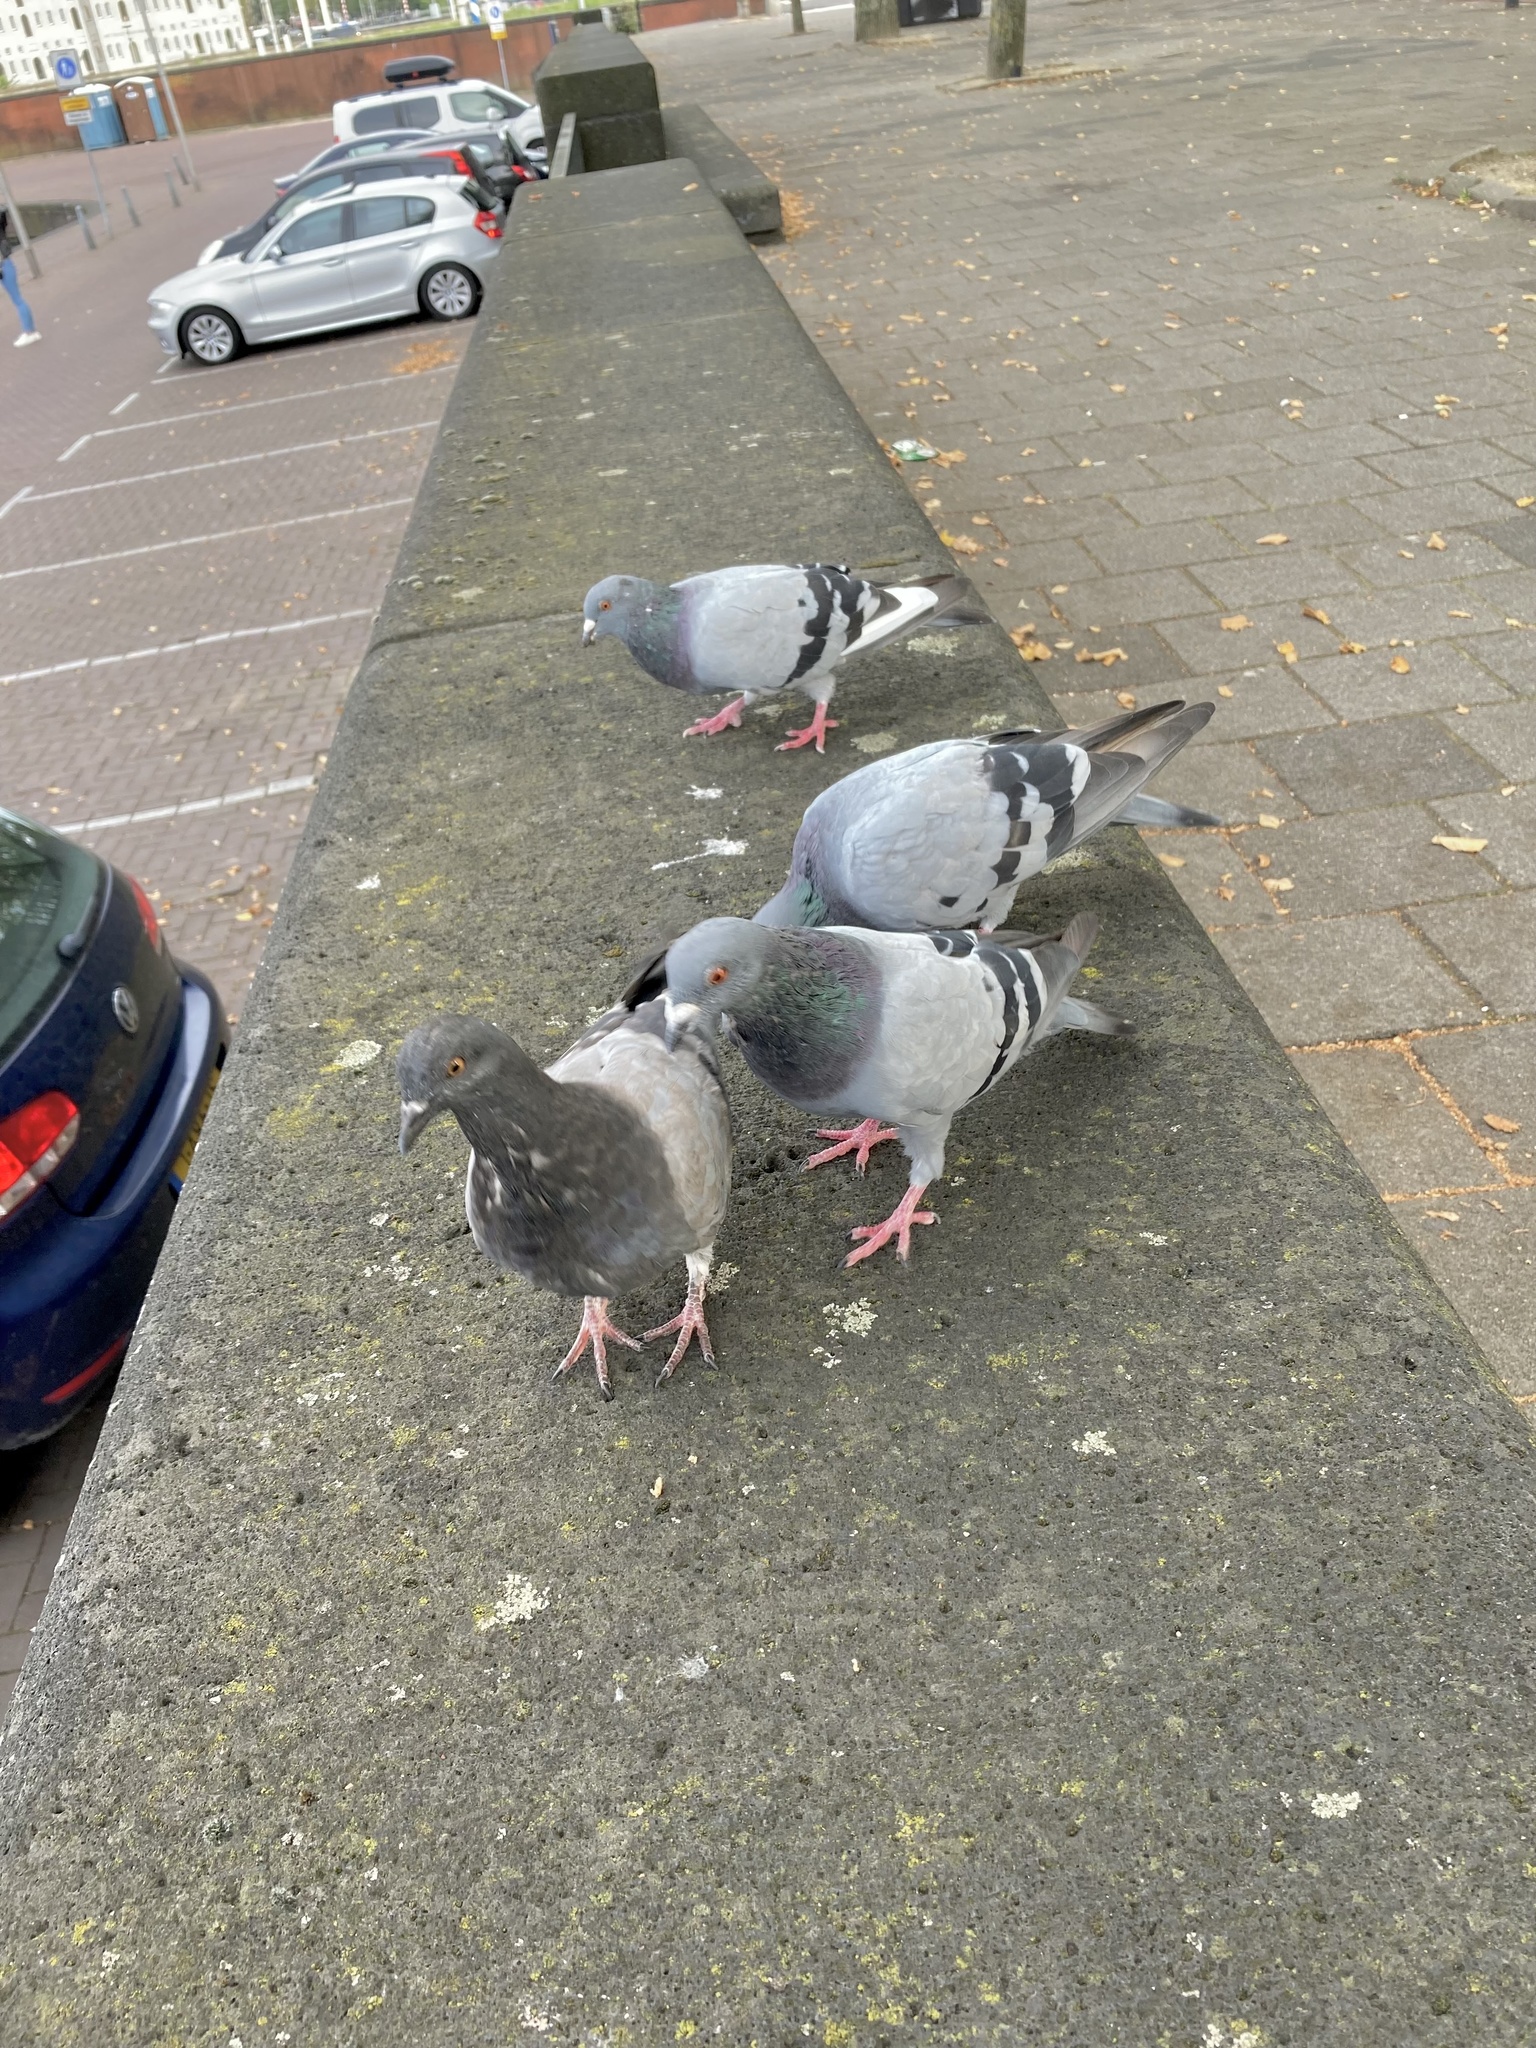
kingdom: Animalia
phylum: Chordata
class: Aves
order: Columbiformes
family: Columbidae
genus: Columba
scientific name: Columba livia
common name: Rock pigeon
